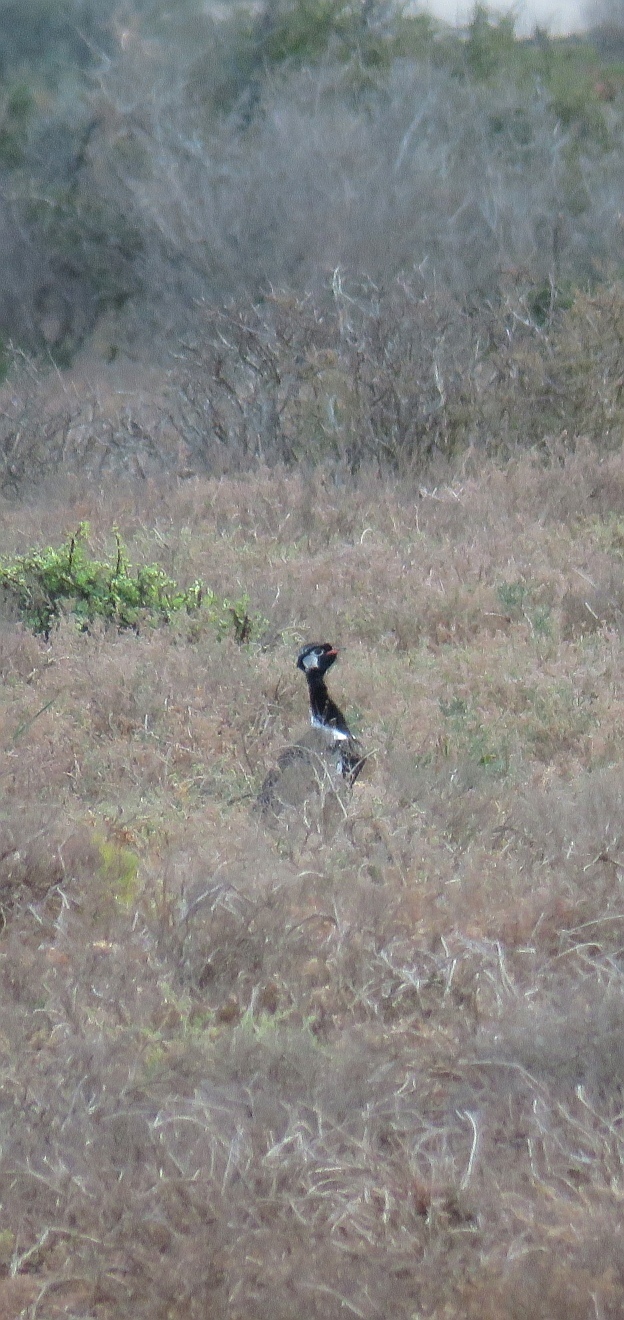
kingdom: Animalia
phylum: Chordata
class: Aves
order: Otidiformes
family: Otididae
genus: Afrotis
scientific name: Afrotis afra
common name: Southern black korhaan
